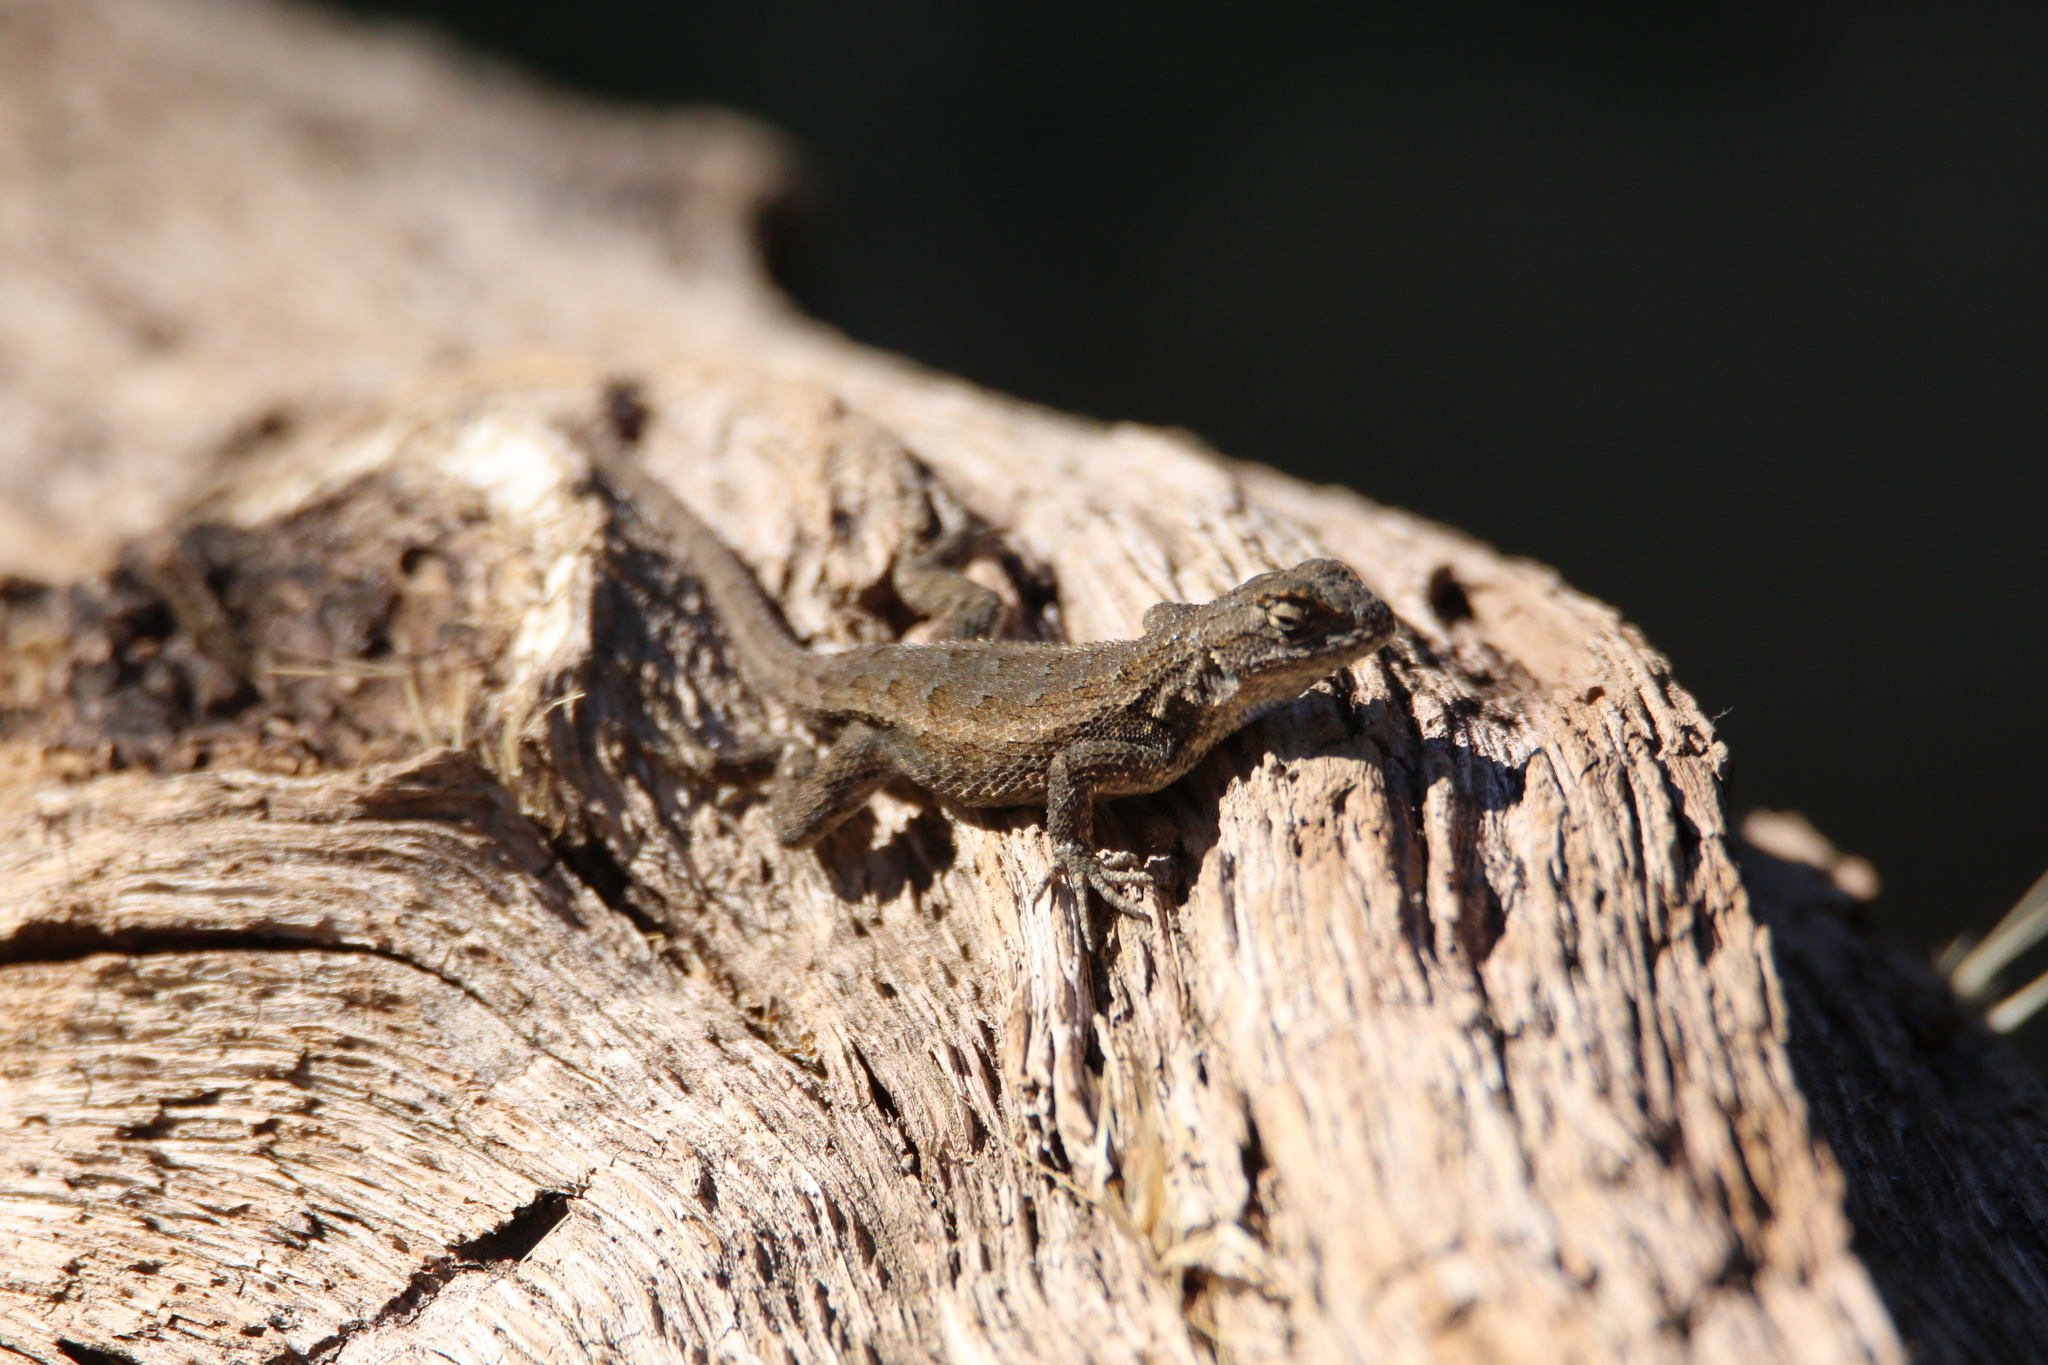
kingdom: Animalia
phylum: Chordata
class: Squamata
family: Phrynosomatidae
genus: Sceloporus
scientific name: Sceloporus occidentalis
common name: Western fence lizard
